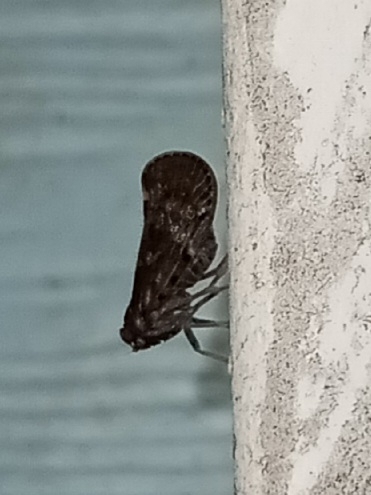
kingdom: Animalia
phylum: Arthropoda
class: Insecta
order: Hemiptera
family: Cixiidae
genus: Pintalia
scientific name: Pintalia vibex
